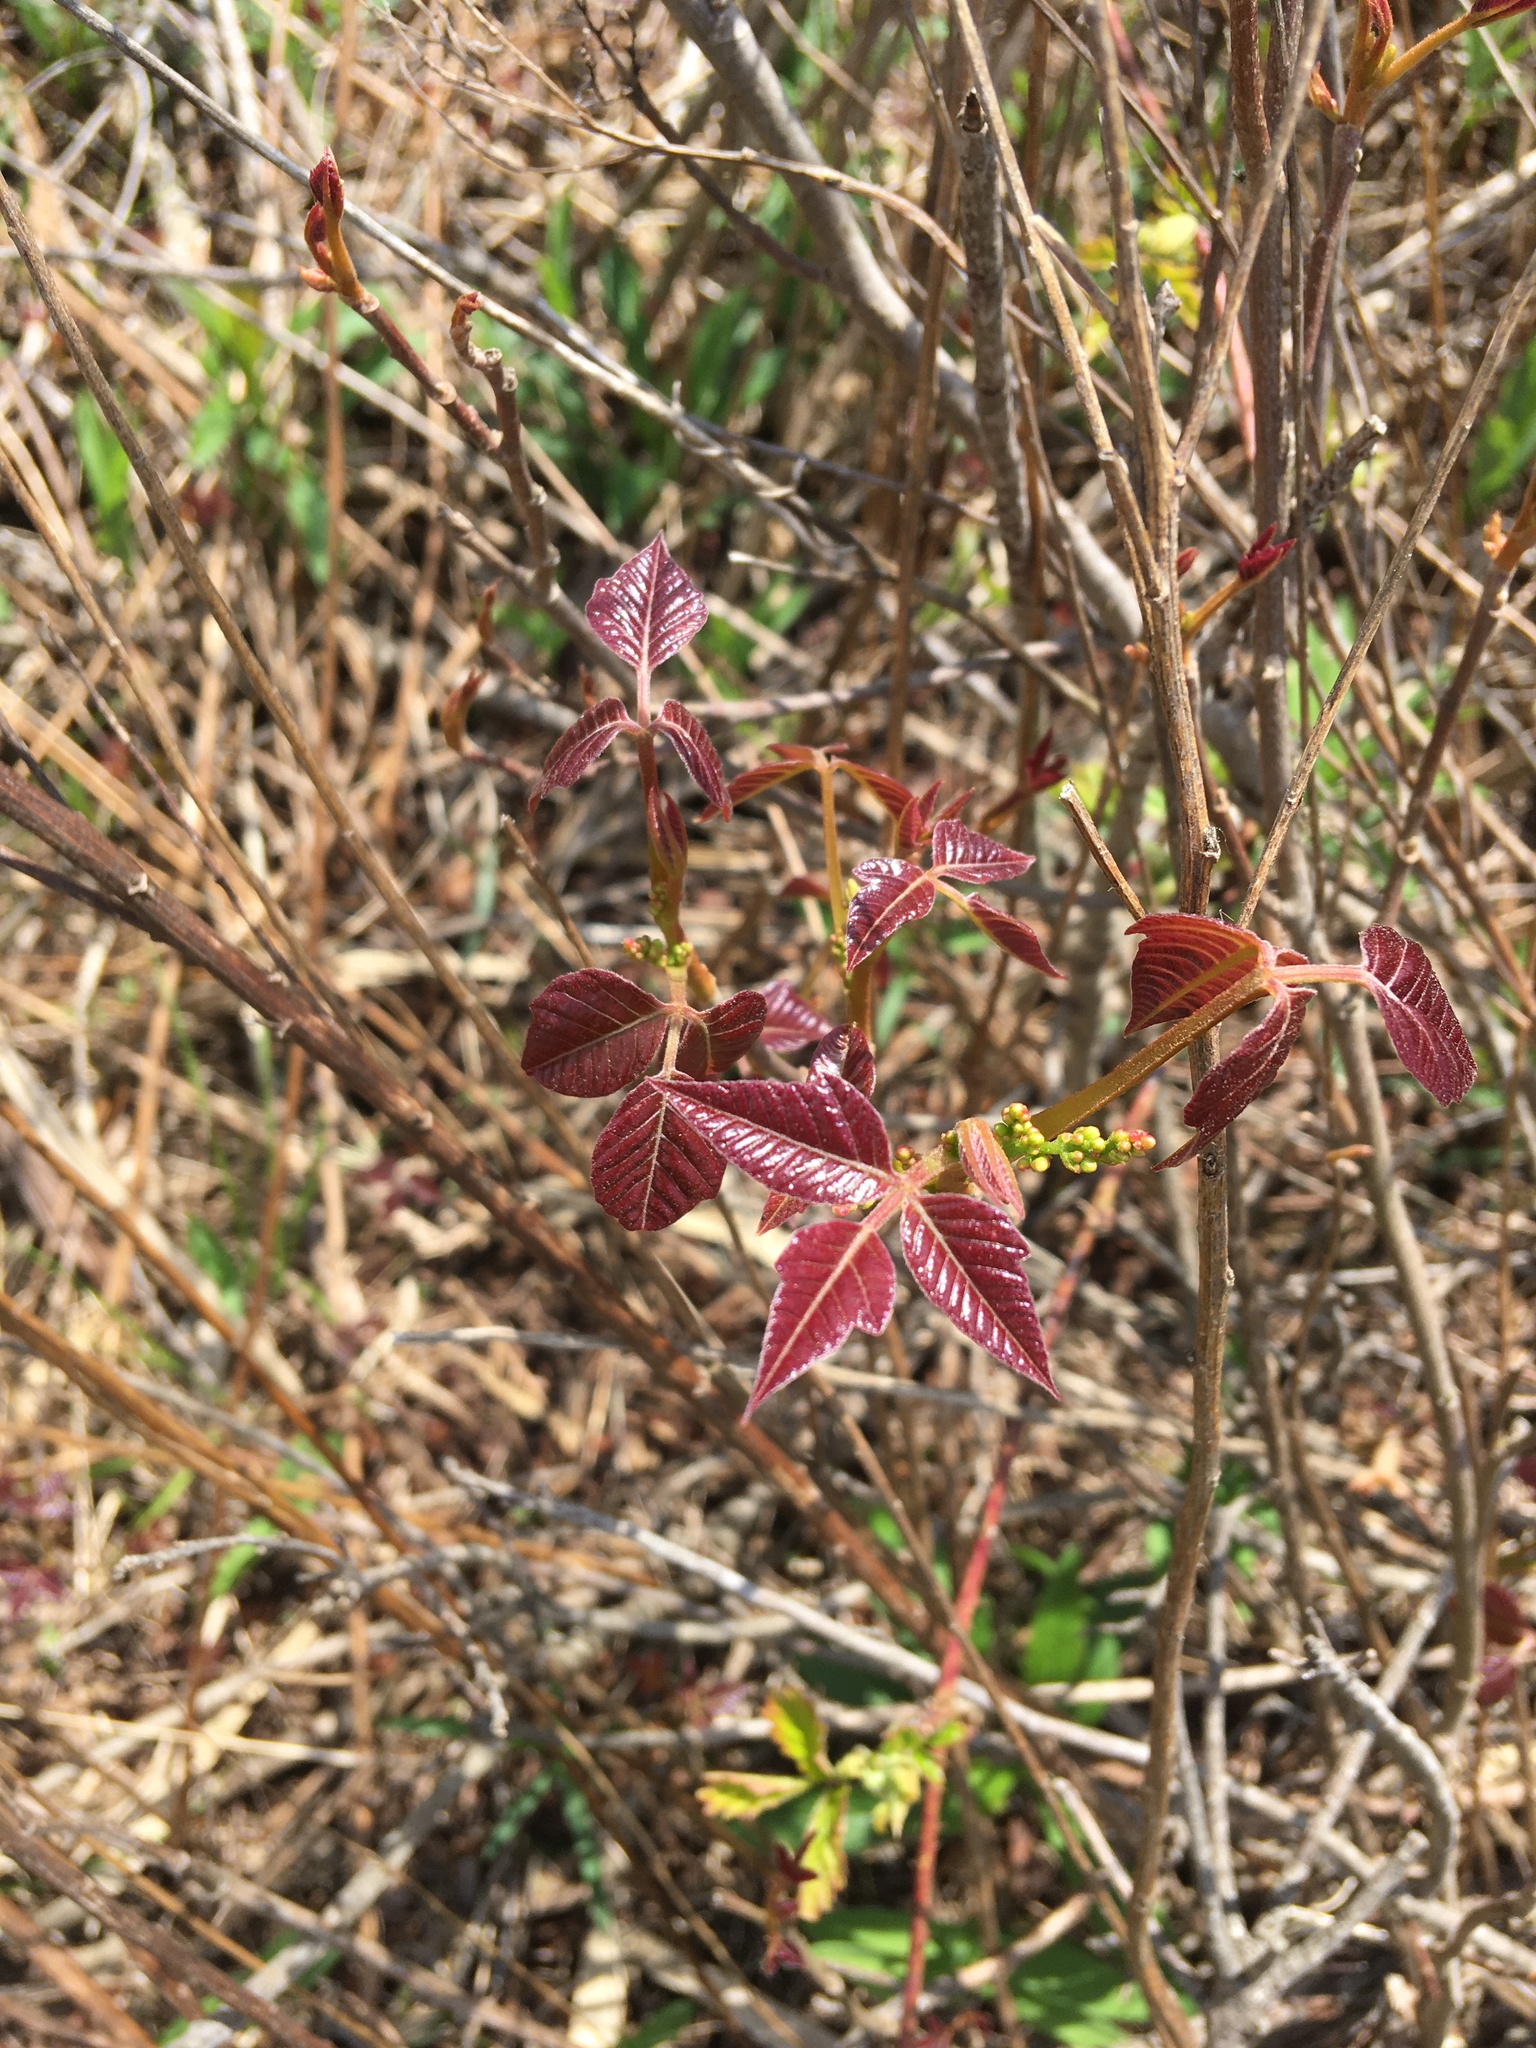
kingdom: Plantae
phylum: Tracheophyta
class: Magnoliopsida
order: Sapindales
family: Anacardiaceae
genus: Toxicodendron
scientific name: Toxicodendron radicans
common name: Poison ivy
